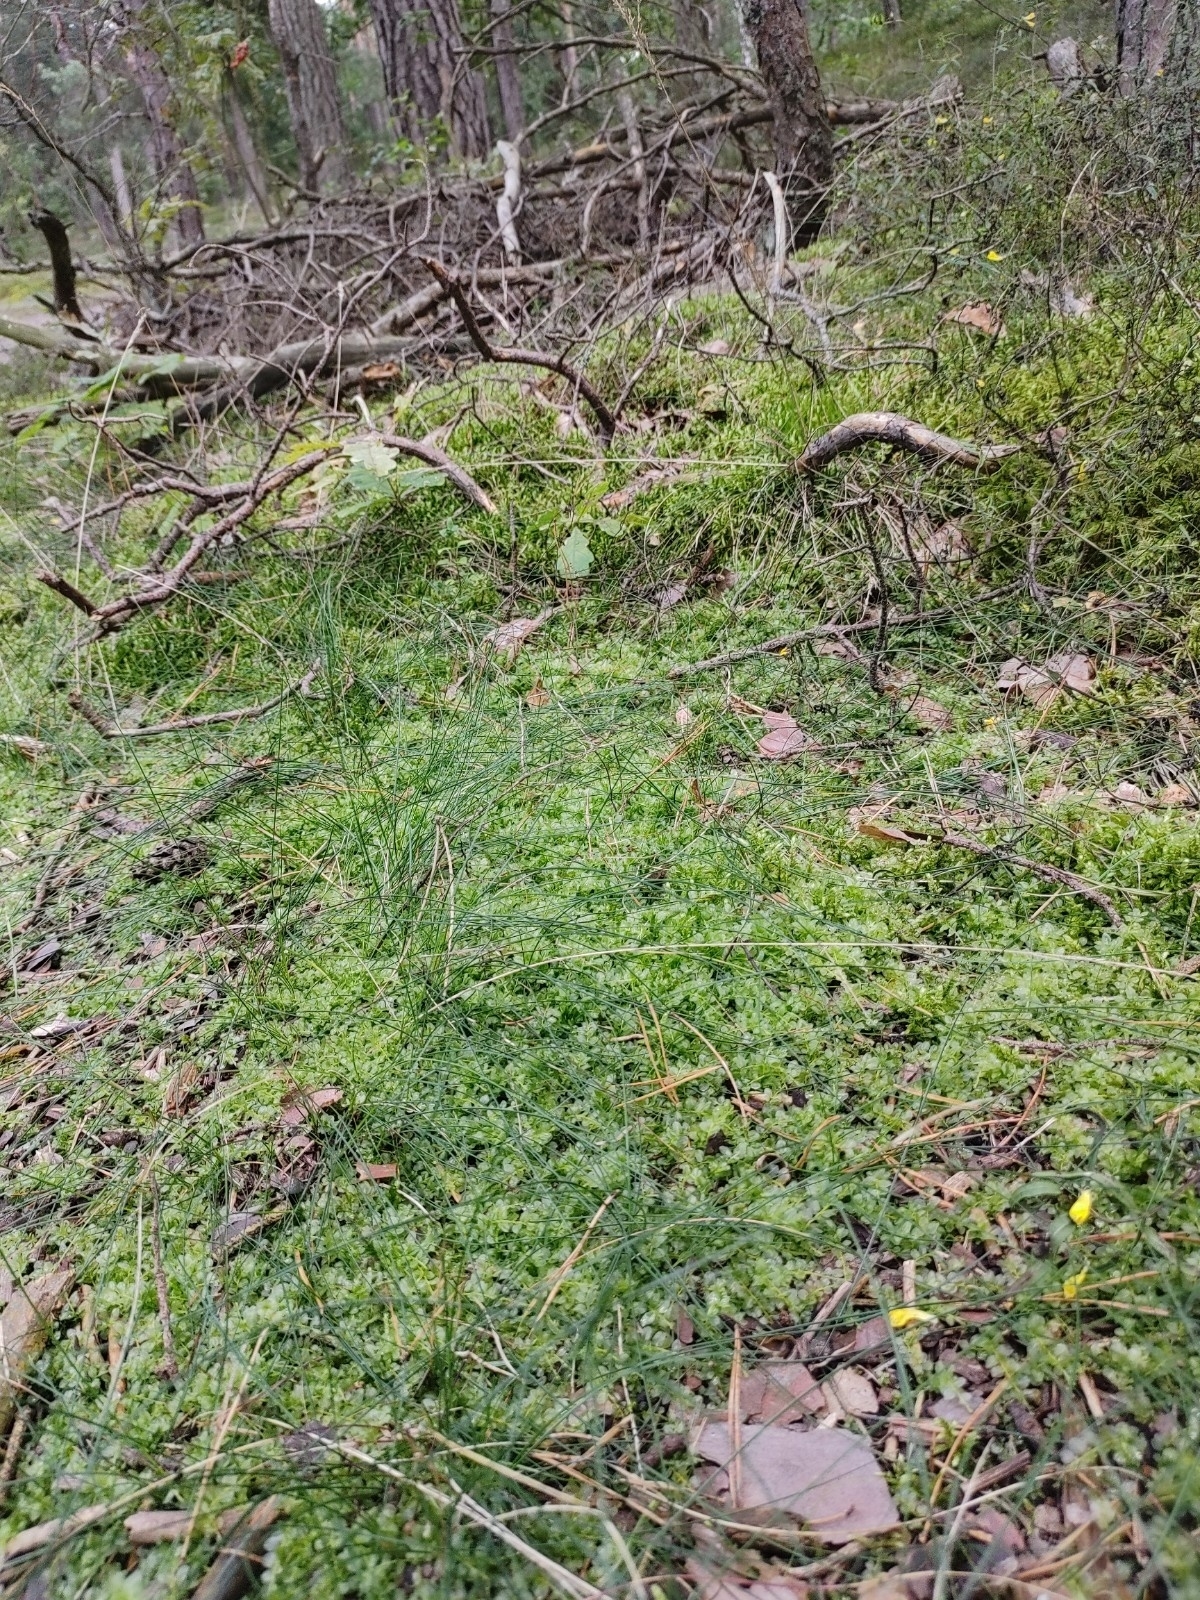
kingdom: Plantae
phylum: Bryophyta
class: Bryopsida
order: Bryales
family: Mniaceae
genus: Plagiomnium
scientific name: Plagiomnium affine
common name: Many-fruited thyme-moss
